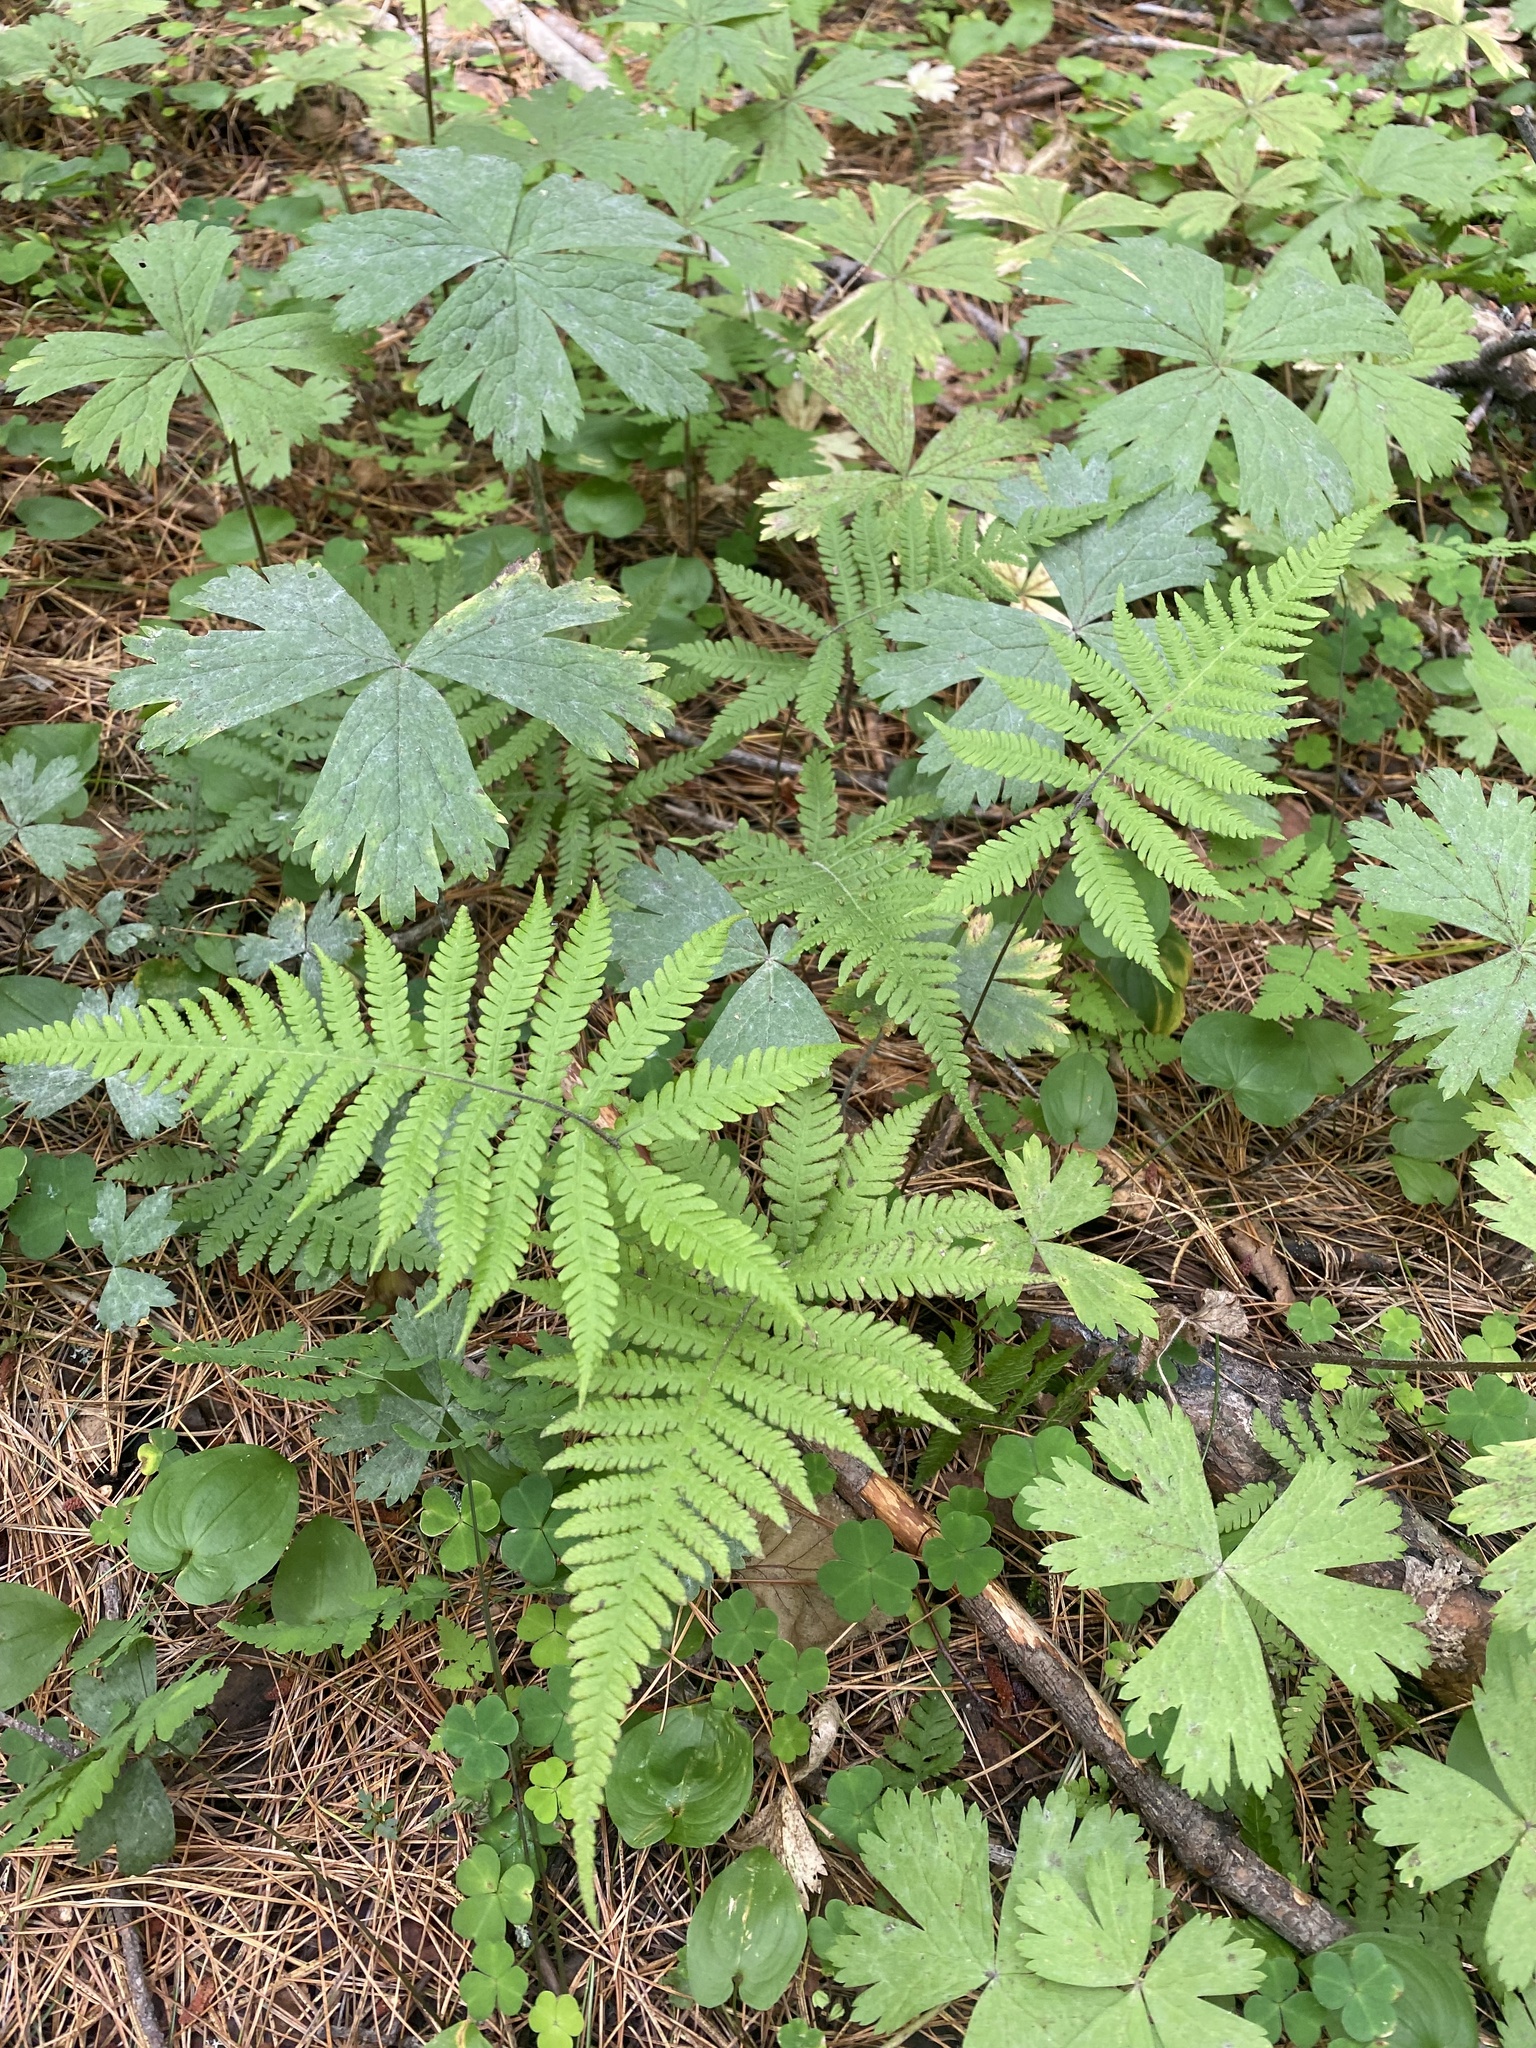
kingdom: Plantae
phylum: Tracheophyta
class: Polypodiopsida
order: Polypodiales
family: Thelypteridaceae
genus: Phegopteris
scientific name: Phegopteris connectilis
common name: Beech fern
